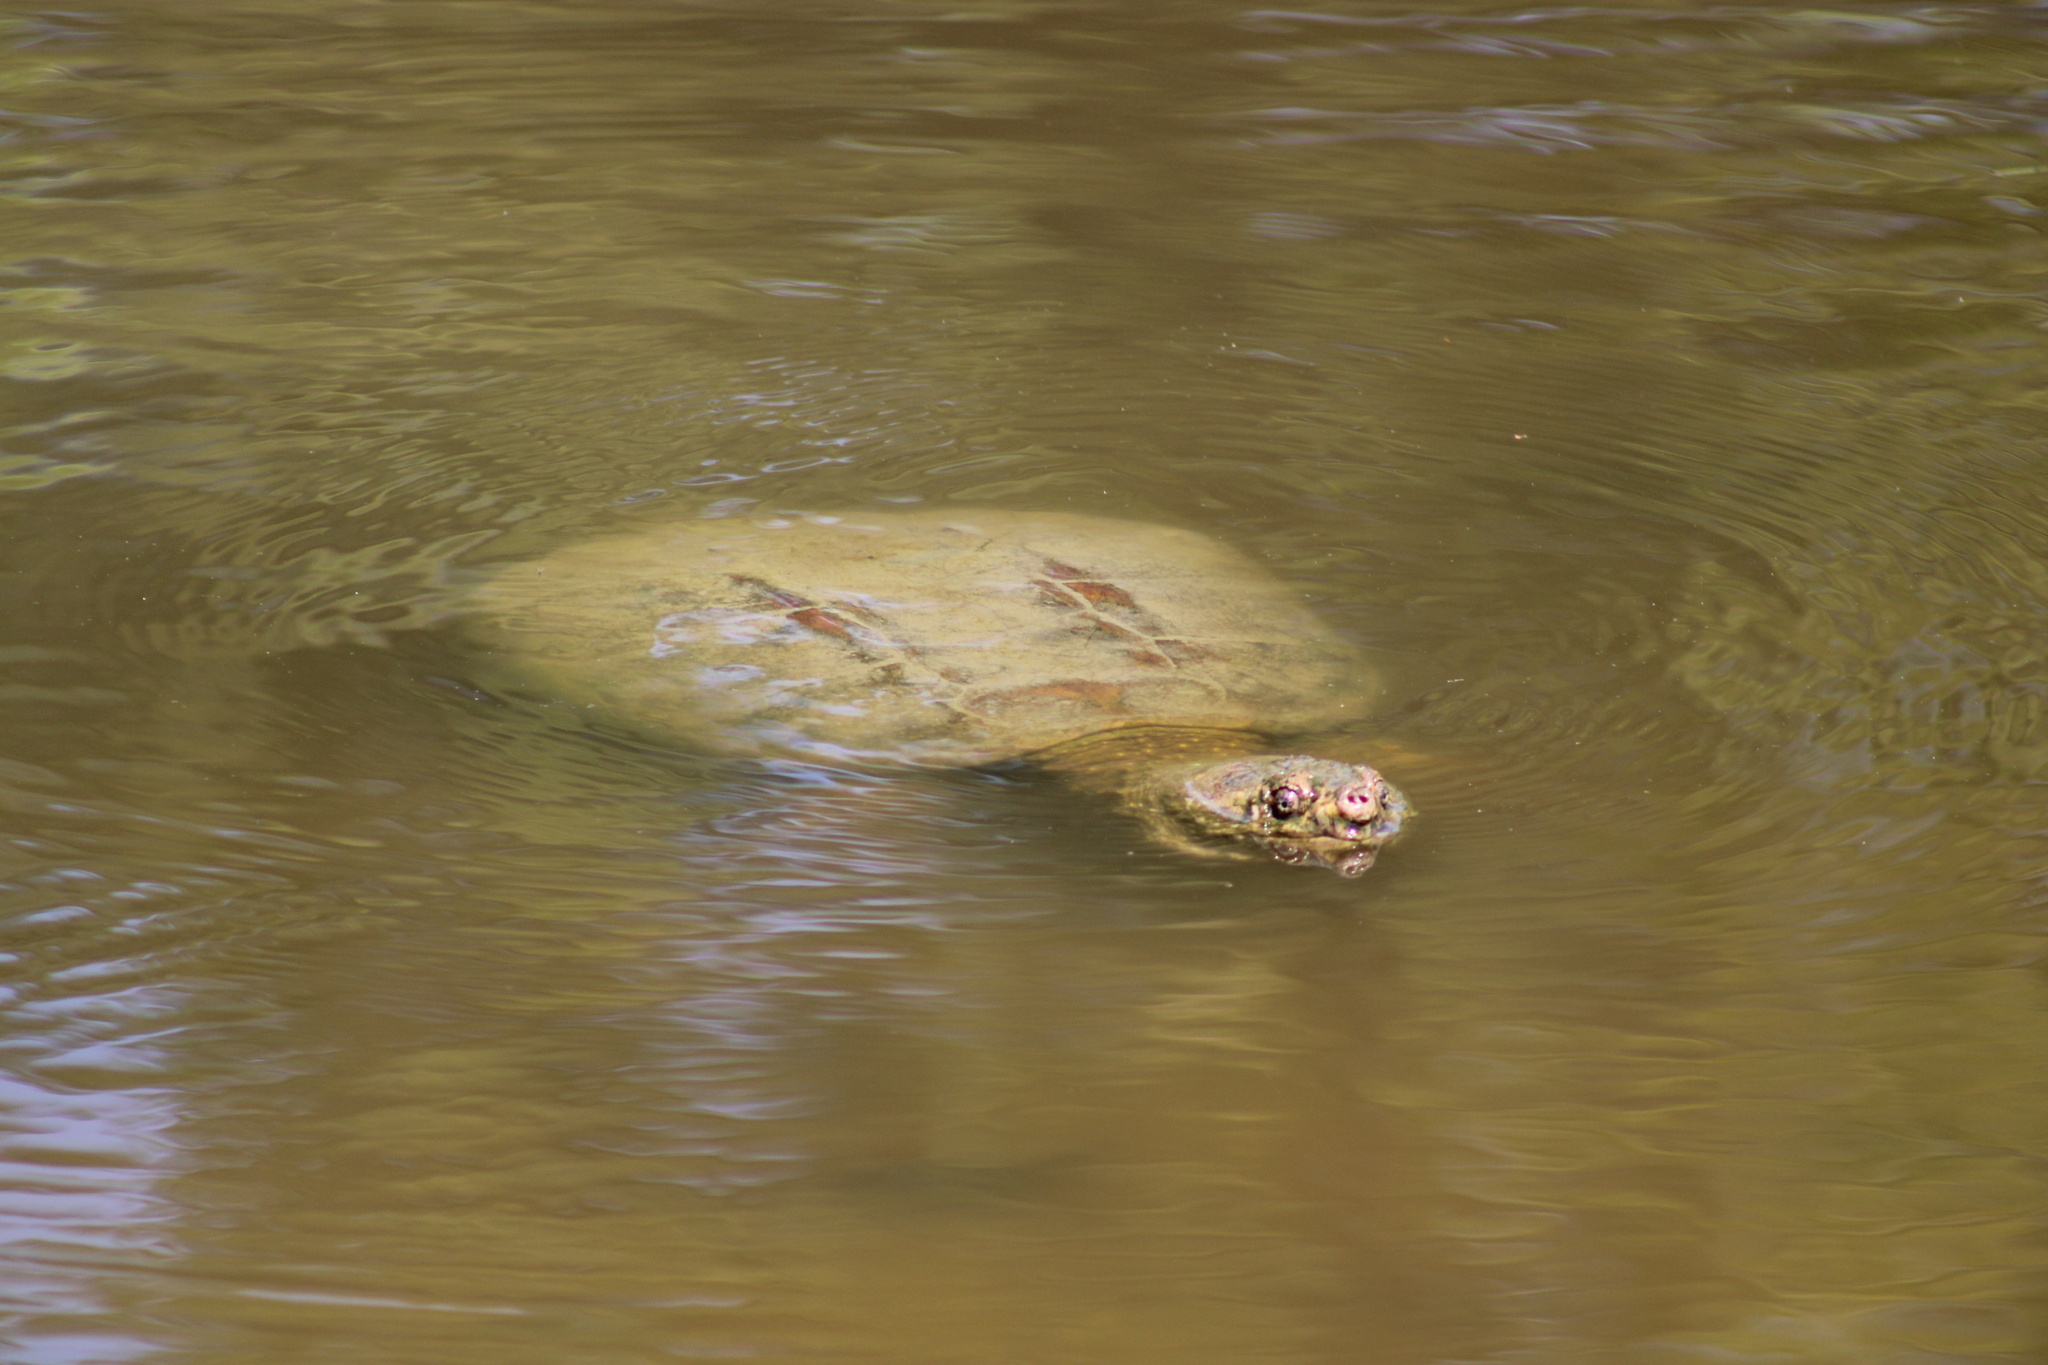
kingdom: Animalia
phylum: Chordata
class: Testudines
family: Chelydridae
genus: Chelydra
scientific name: Chelydra serpentina
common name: Common snapping turtle
